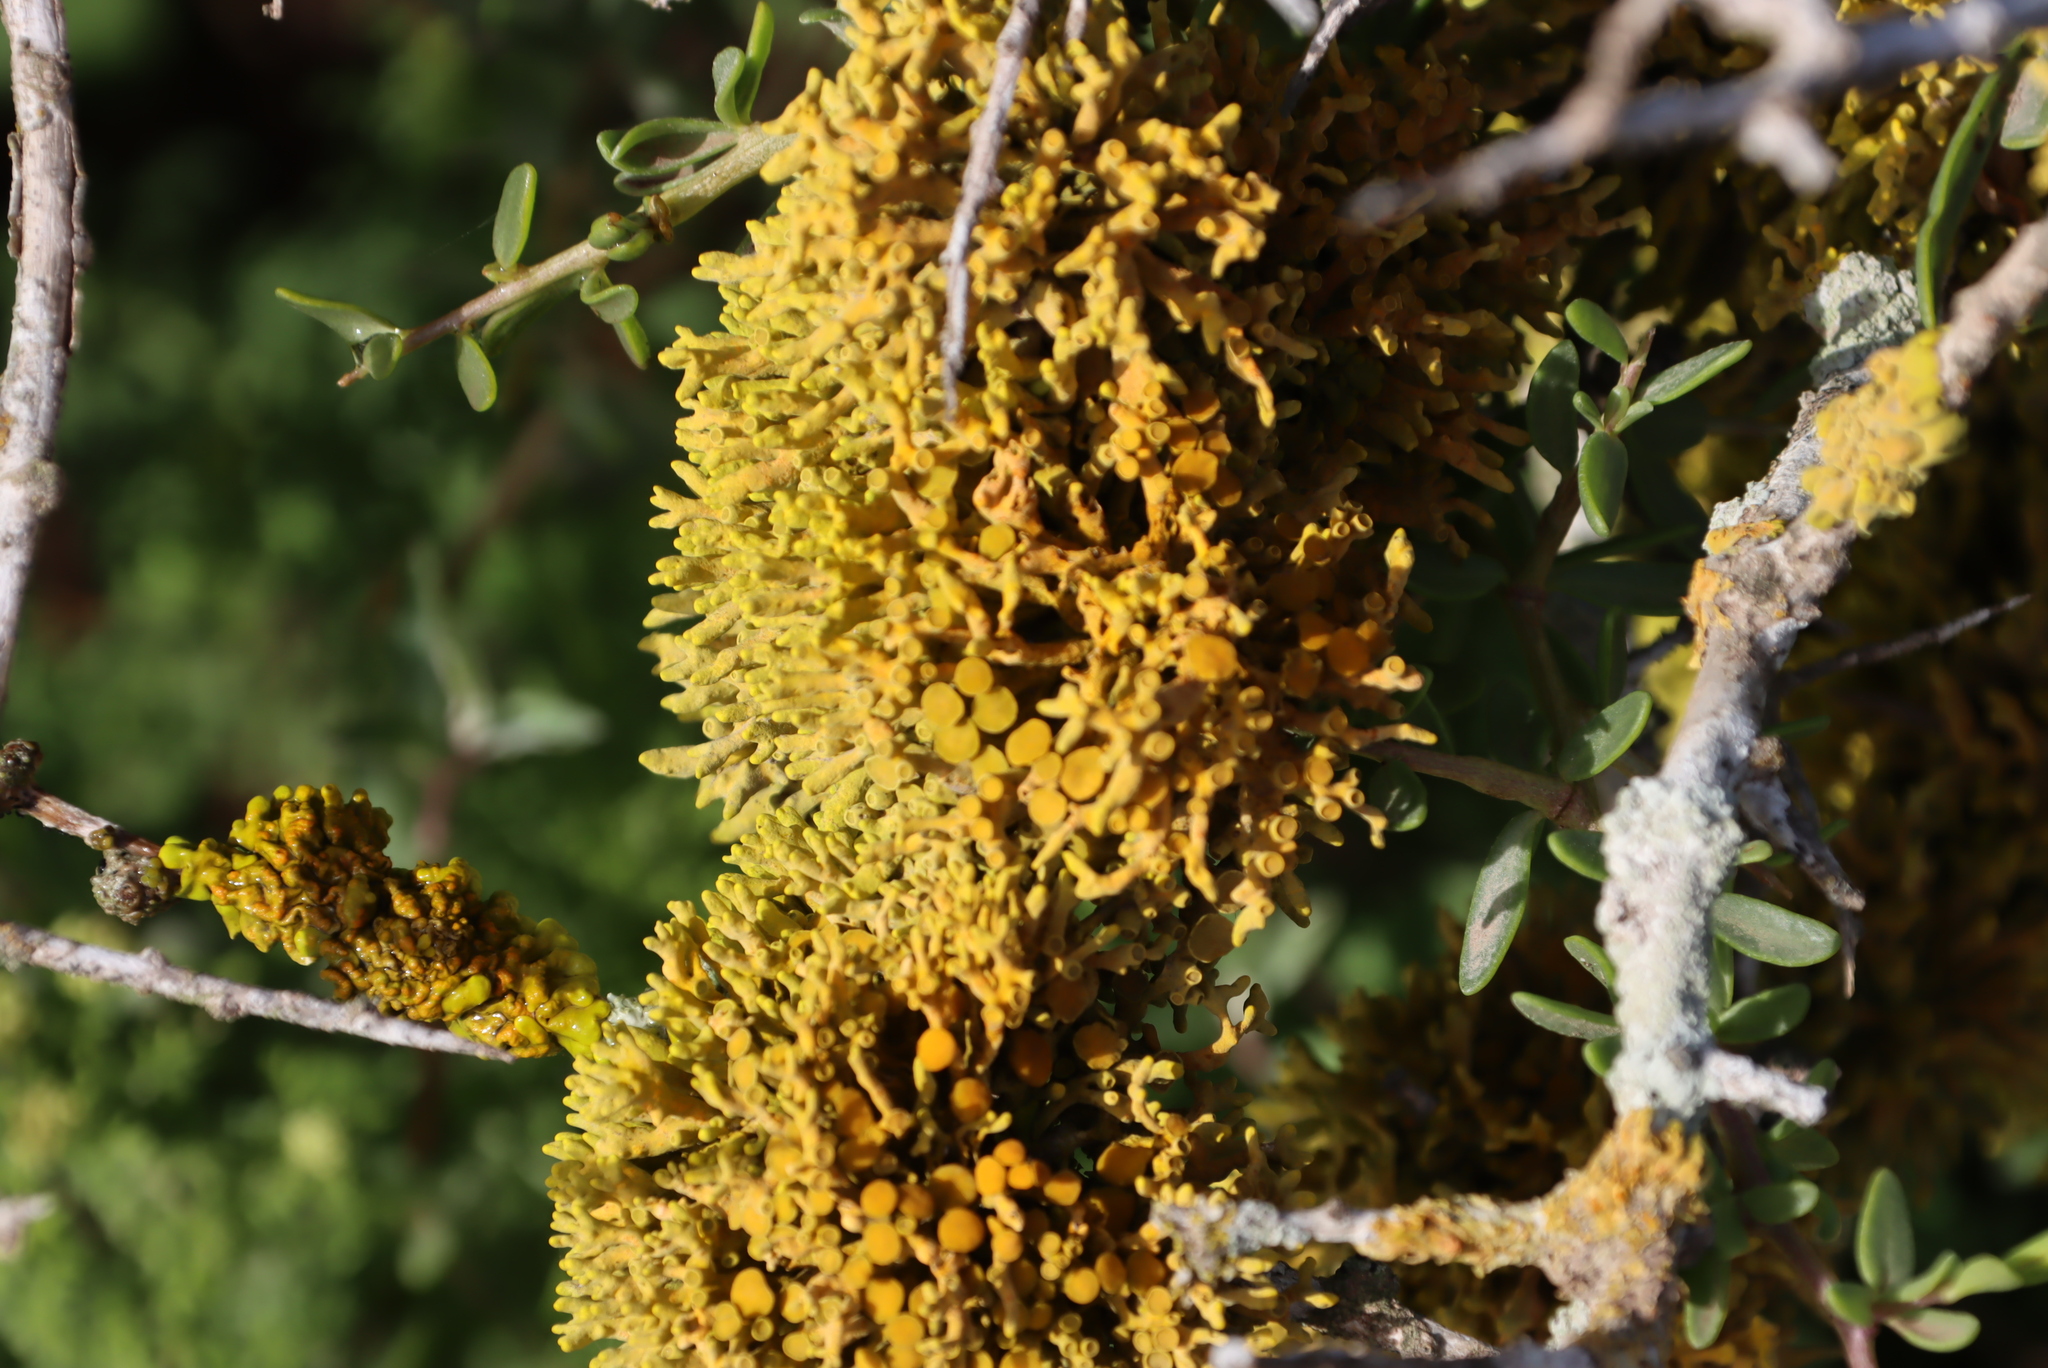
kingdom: Fungi
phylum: Ascomycota
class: Lecanoromycetes
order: Teloschistales
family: Teloschistaceae
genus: Dufourea
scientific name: Dufourea flammea
